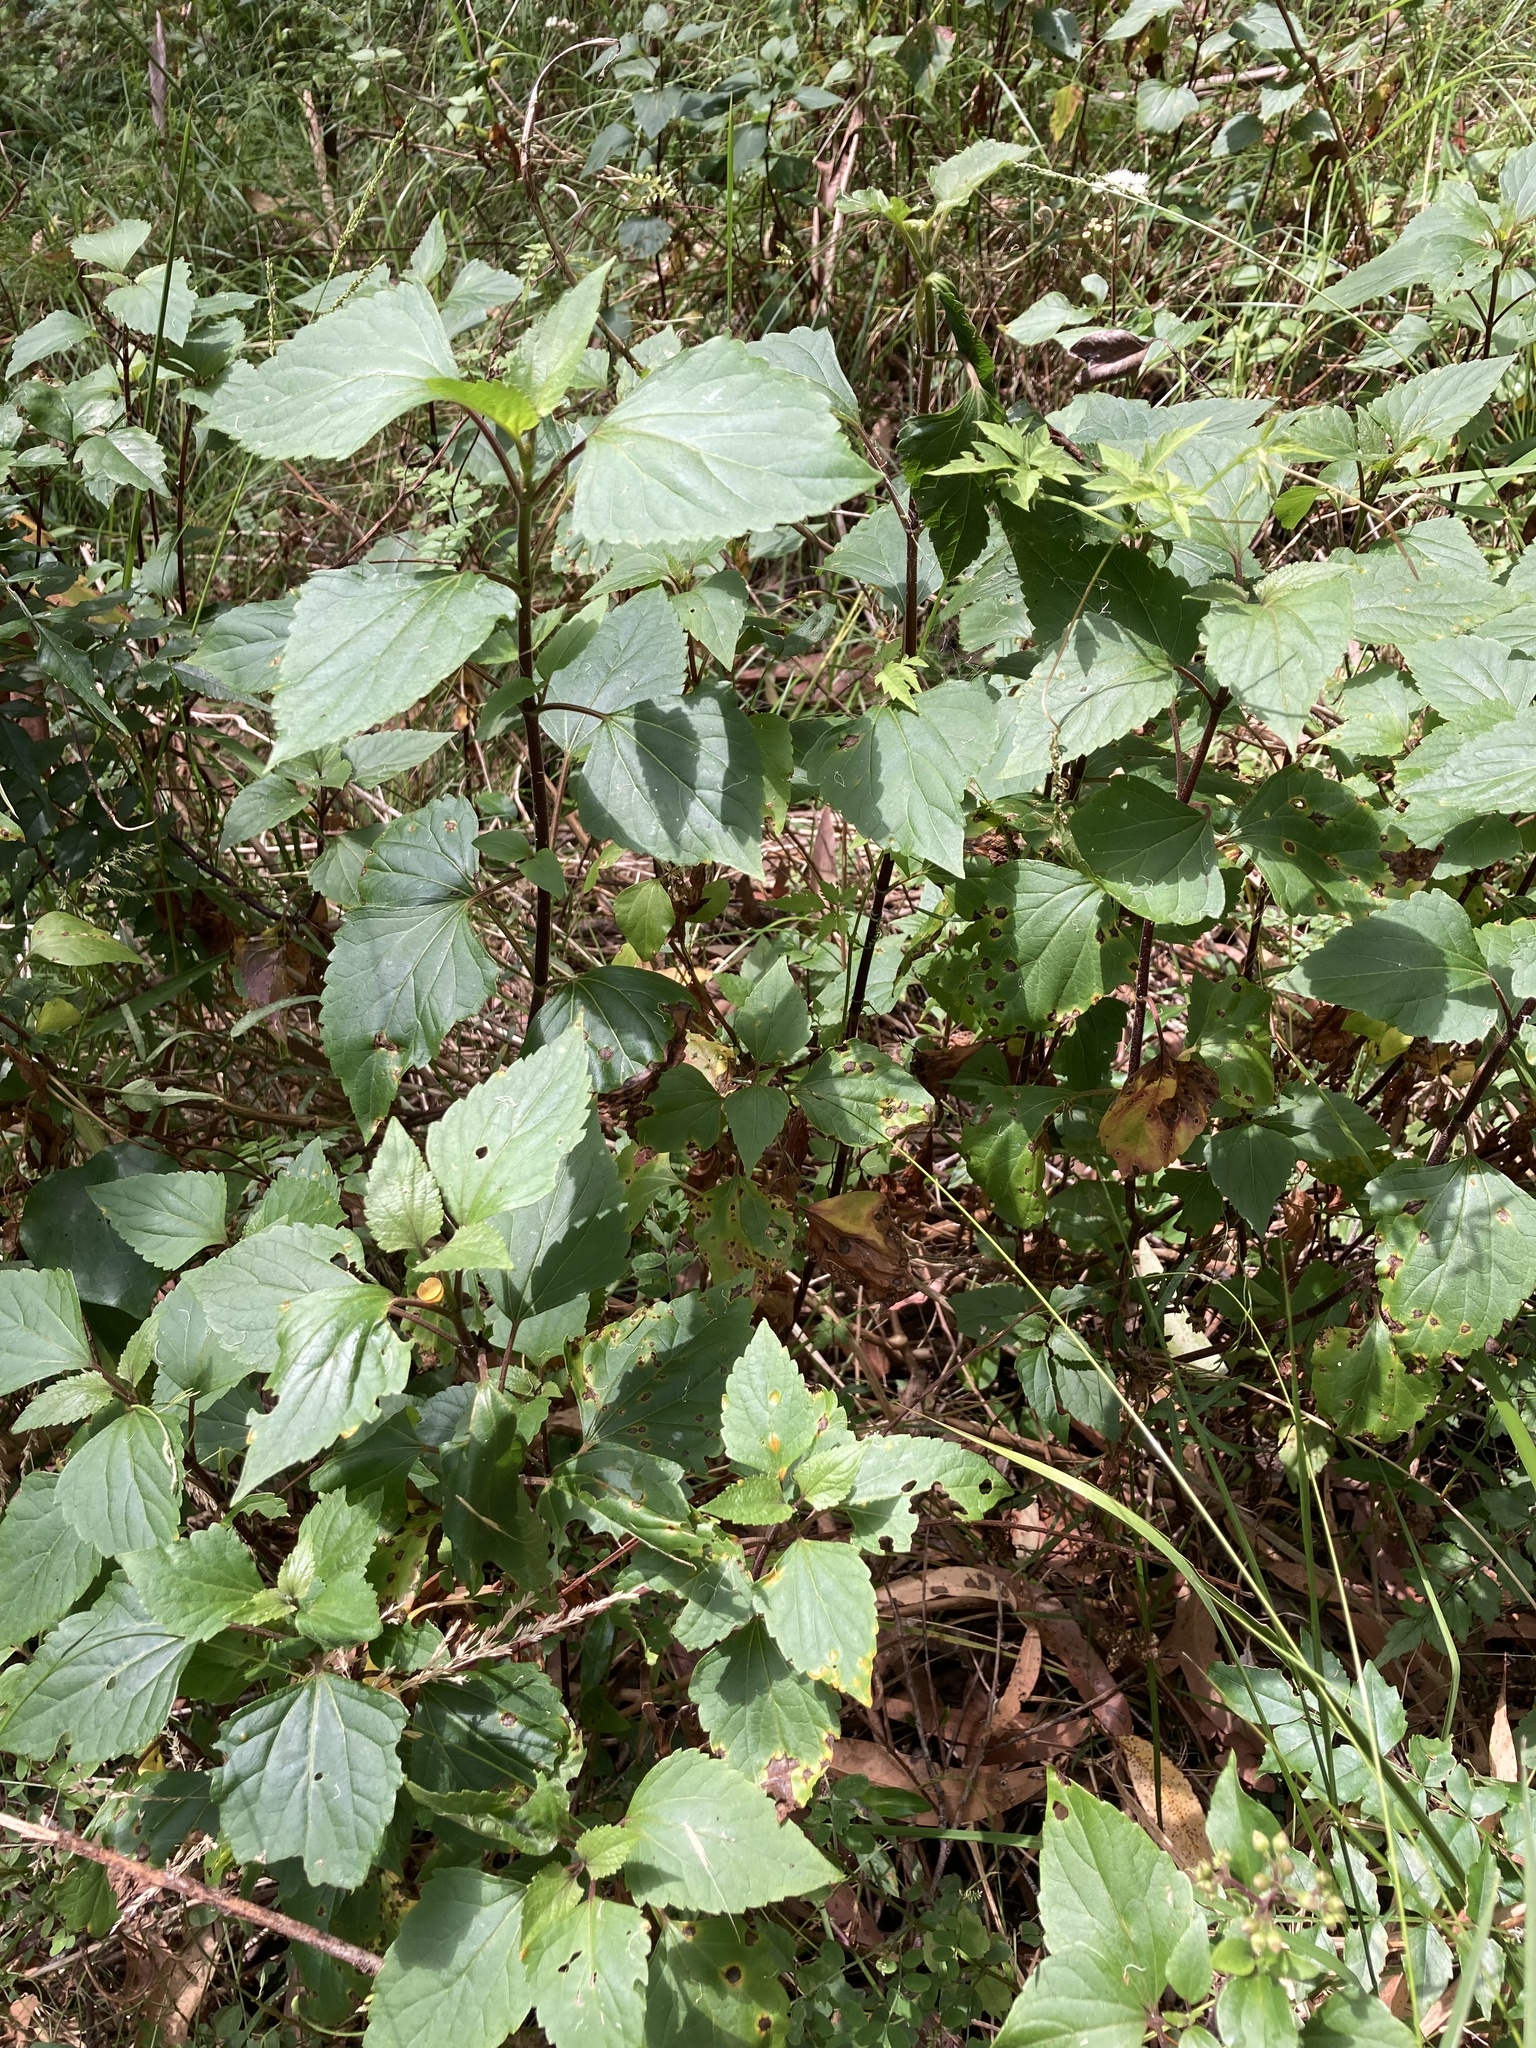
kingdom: Plantae
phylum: Tracheophyta
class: Magnoliopsida
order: Asterales
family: Asteraceae
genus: Ageratina
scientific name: Ageratina adenophora
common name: Sticky snakeroot
